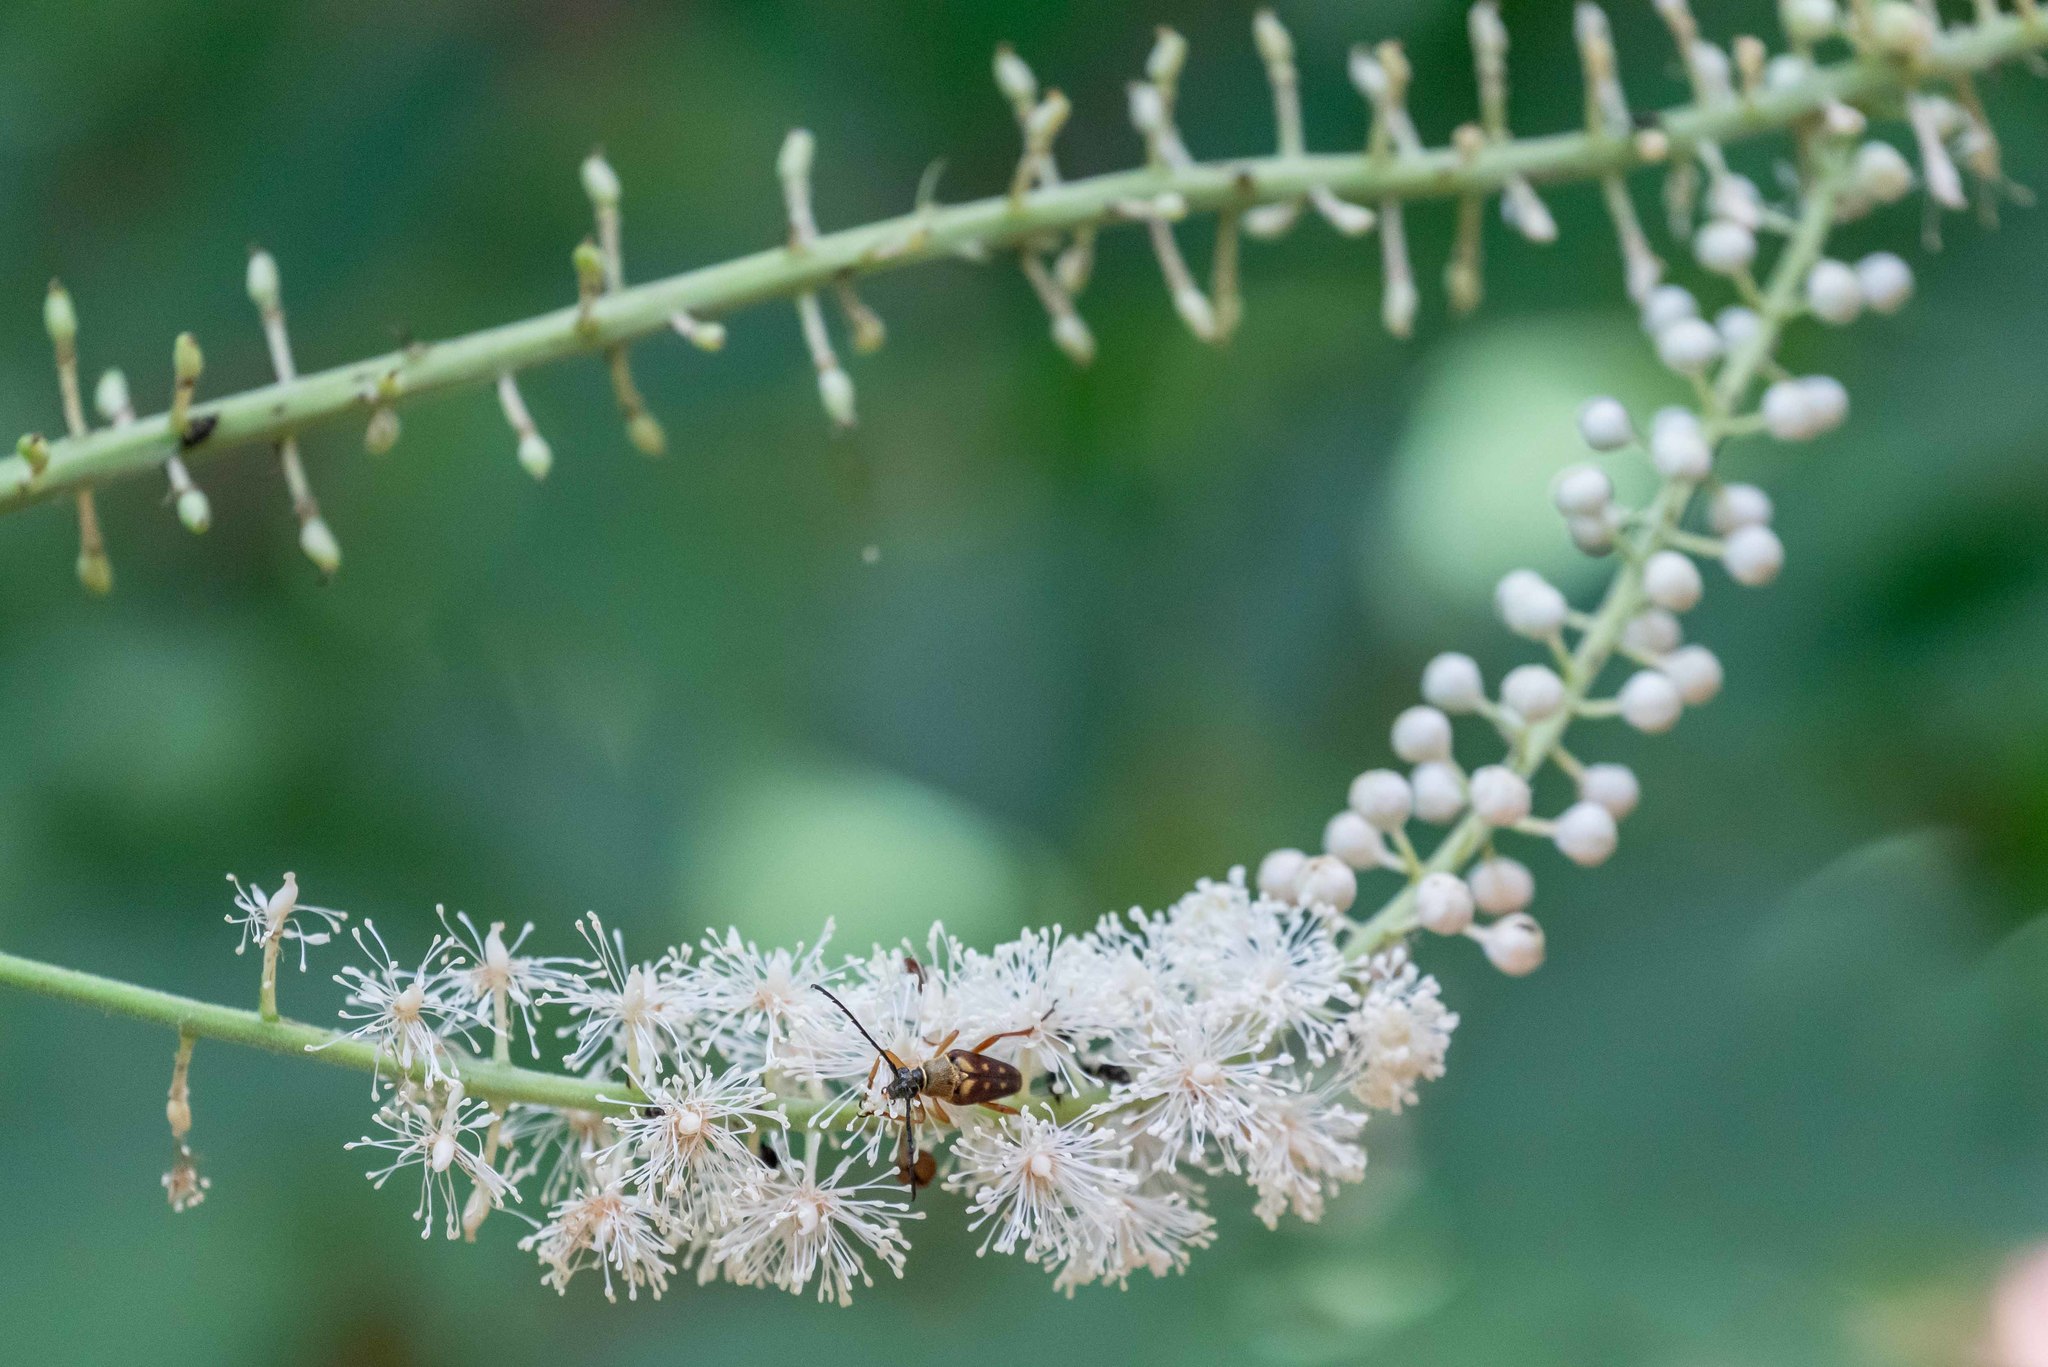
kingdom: Plantae
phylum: Tracheophyta
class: Magnoliopsida
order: Ranunculales
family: Ranunculaceae
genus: Actaea
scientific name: Actaea racemosa
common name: Black cohosh
